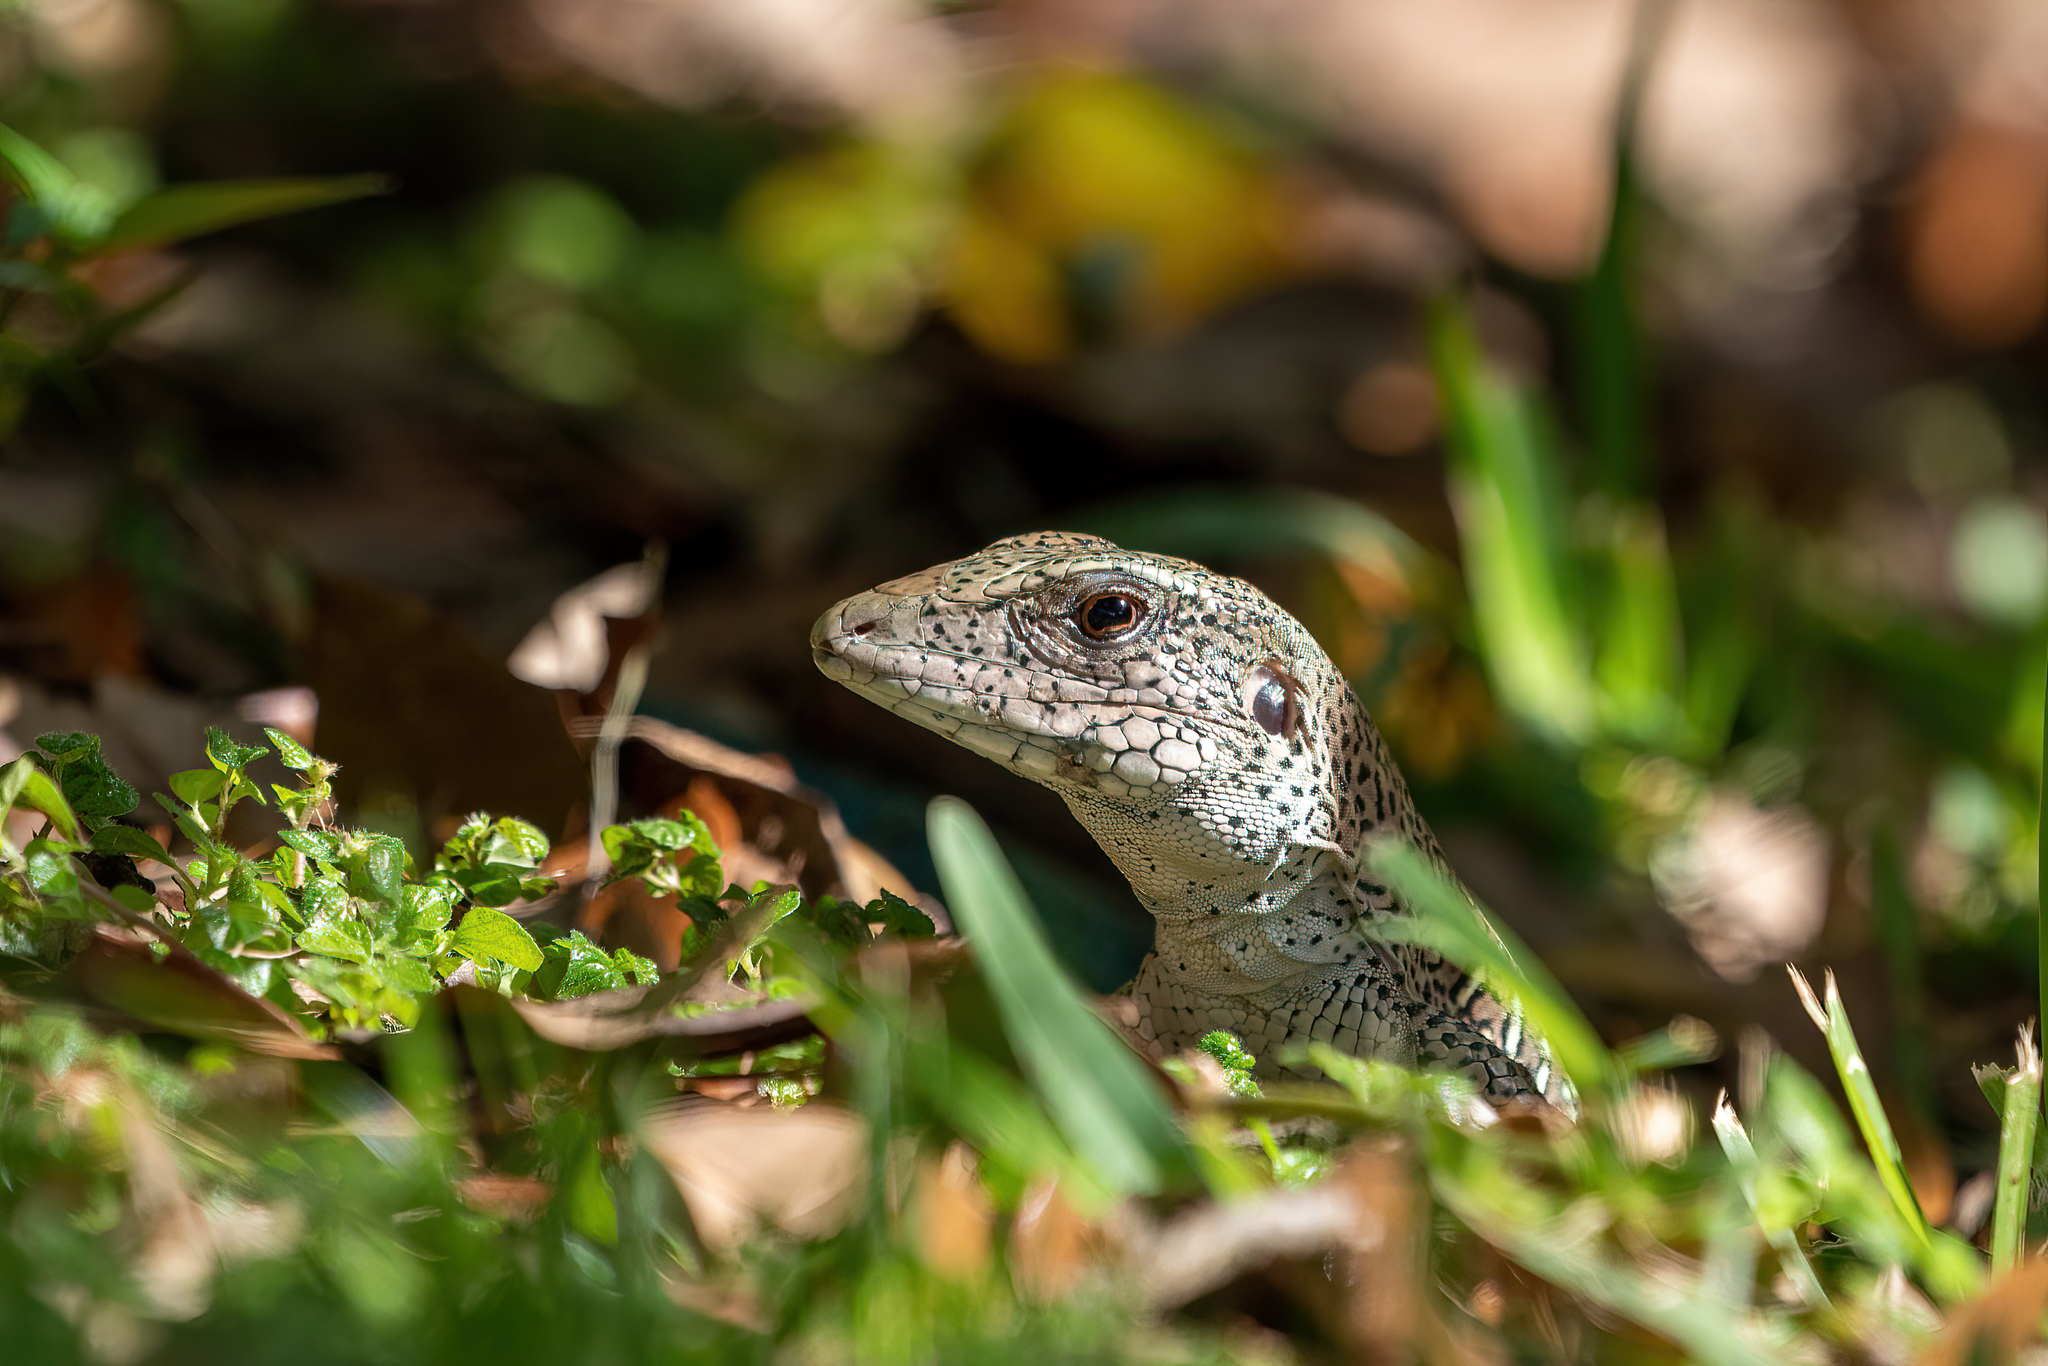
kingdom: Animalia
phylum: Chordata
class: Squamata
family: Teiidae
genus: Ameiva
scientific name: Ameiva ameiva
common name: Giant ameiva
